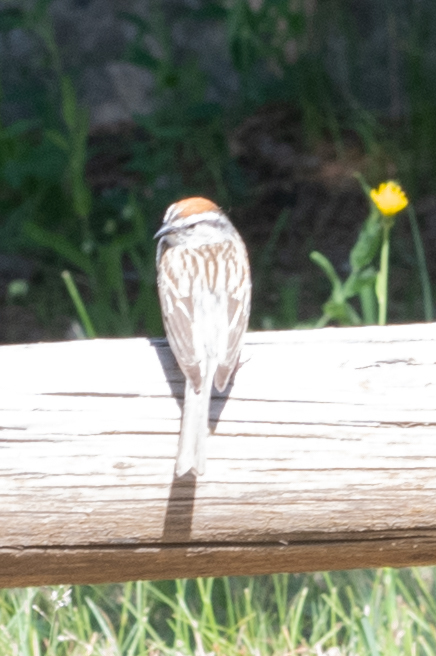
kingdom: Animalia
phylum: Chordata
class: Aves
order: Passeriformes
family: Passerellidae
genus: Spizella
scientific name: Spizella passerina
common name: Chipping sparrow
